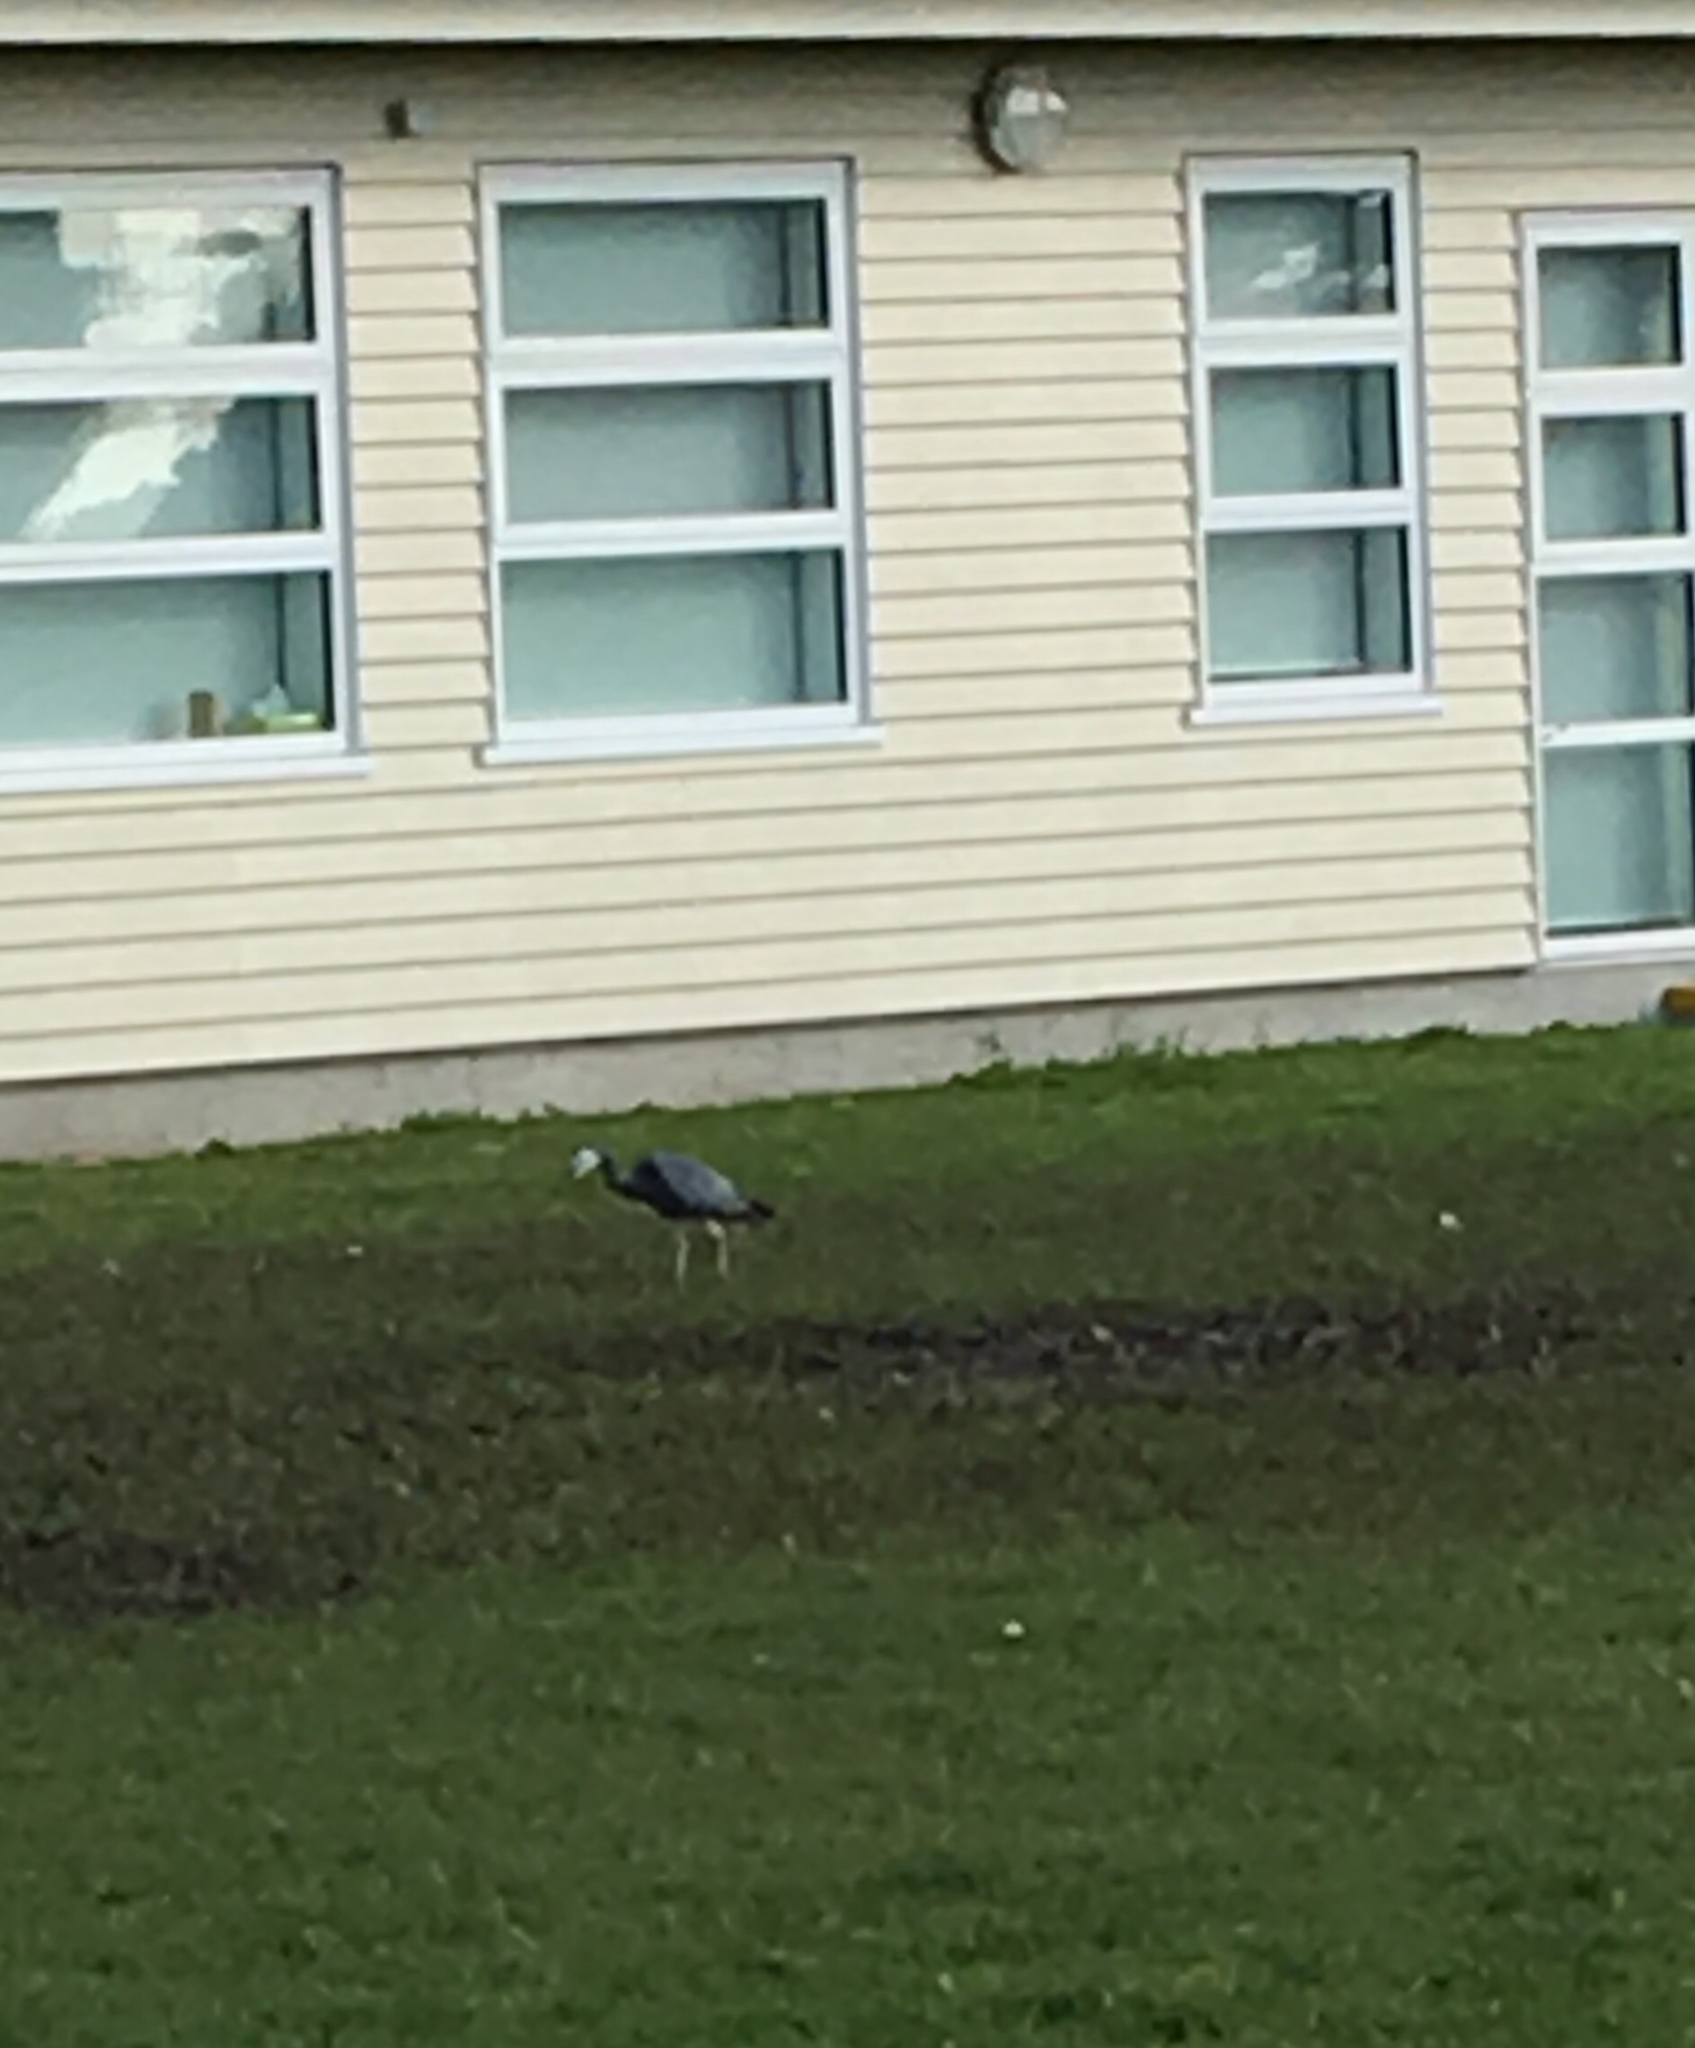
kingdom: Animalia
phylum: Chordata
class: Aves
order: Pelecaniformes
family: Ardeidae
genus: Egretta
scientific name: Egretta novaehollandiae
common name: White-faced heron
